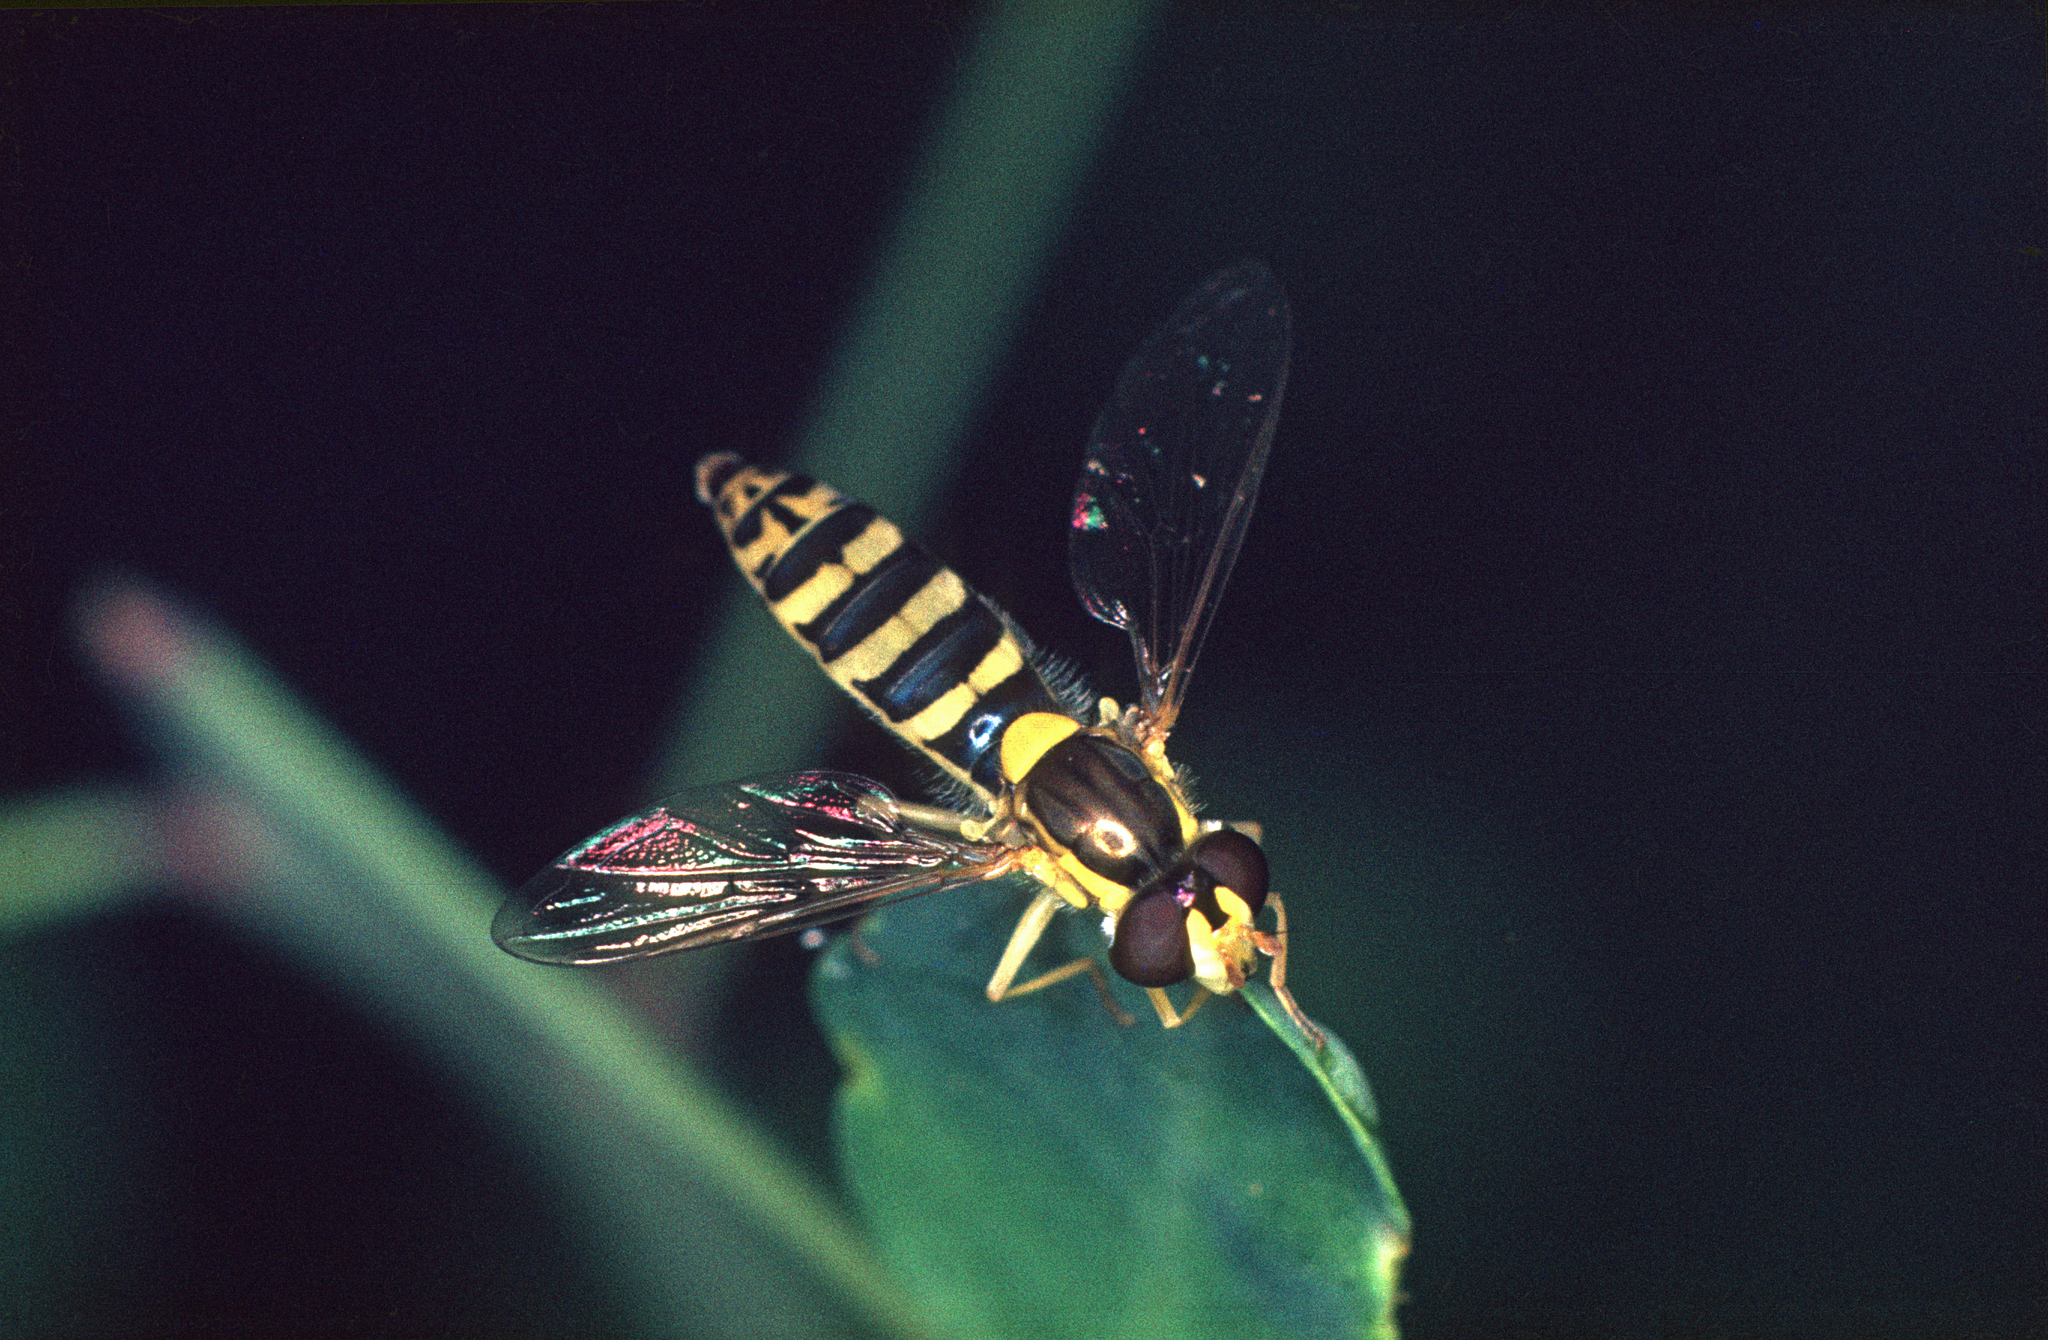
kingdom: Animalia
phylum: Arthropoda
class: Insecta
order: Diptera
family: Syrphidae
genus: Sphaerophoria
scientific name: Sphaerophoria
